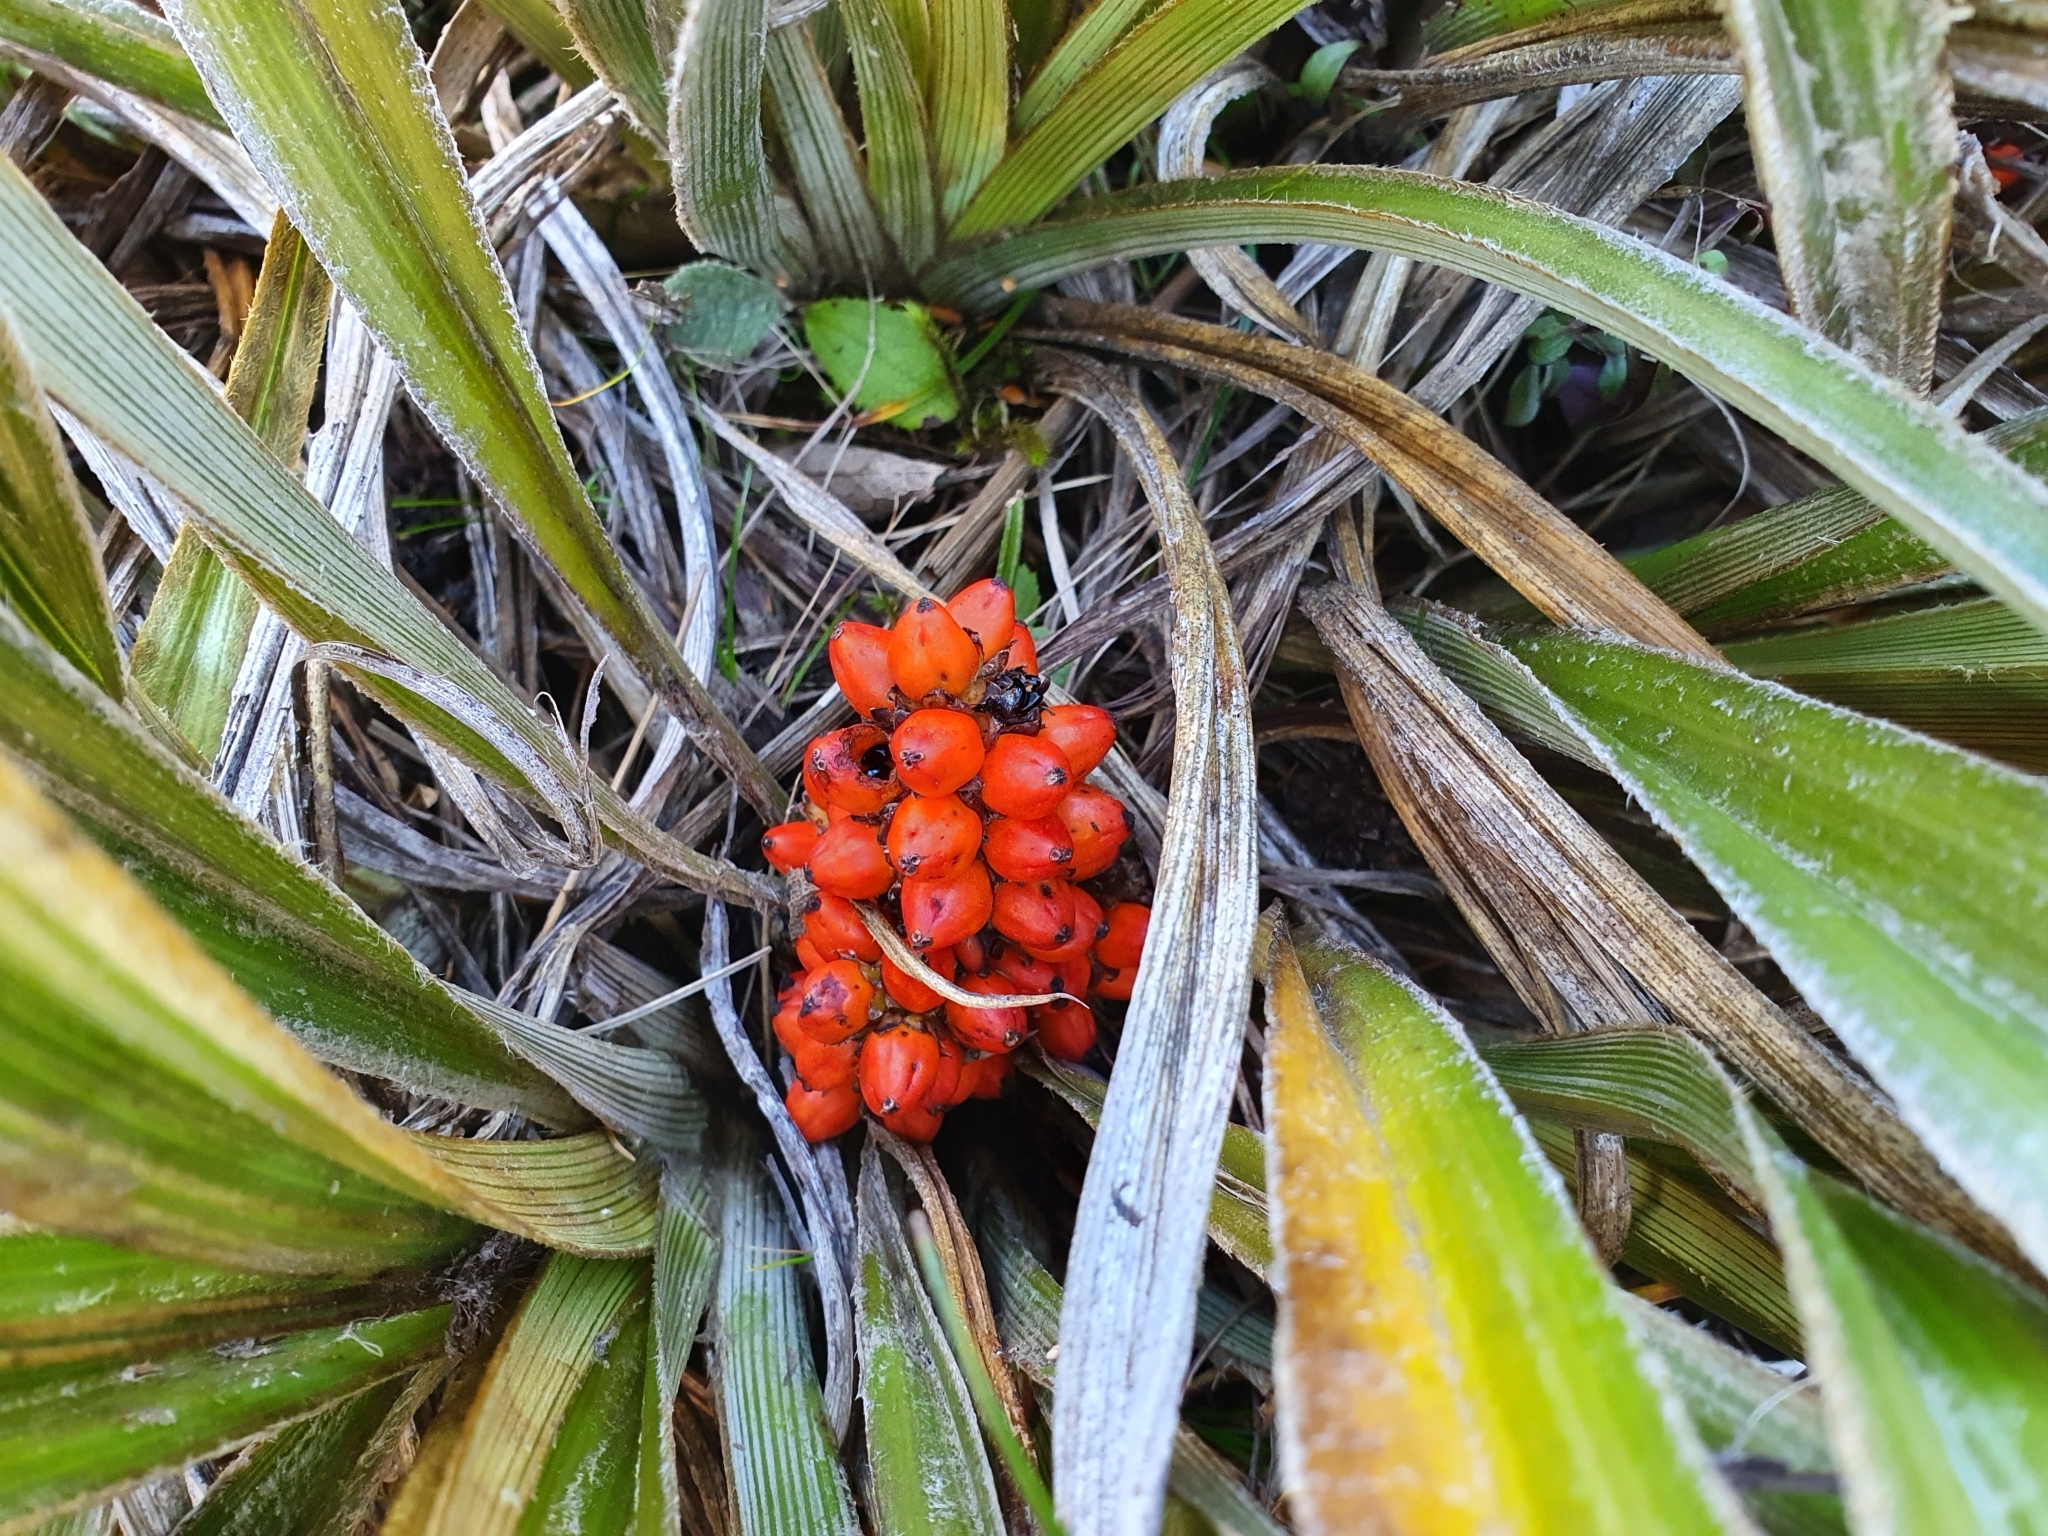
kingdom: Plantae
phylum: Tracheophyta
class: Liliopsida
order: Asparagales
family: Asteliaceae
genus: Astelia
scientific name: Astelia nervosa
